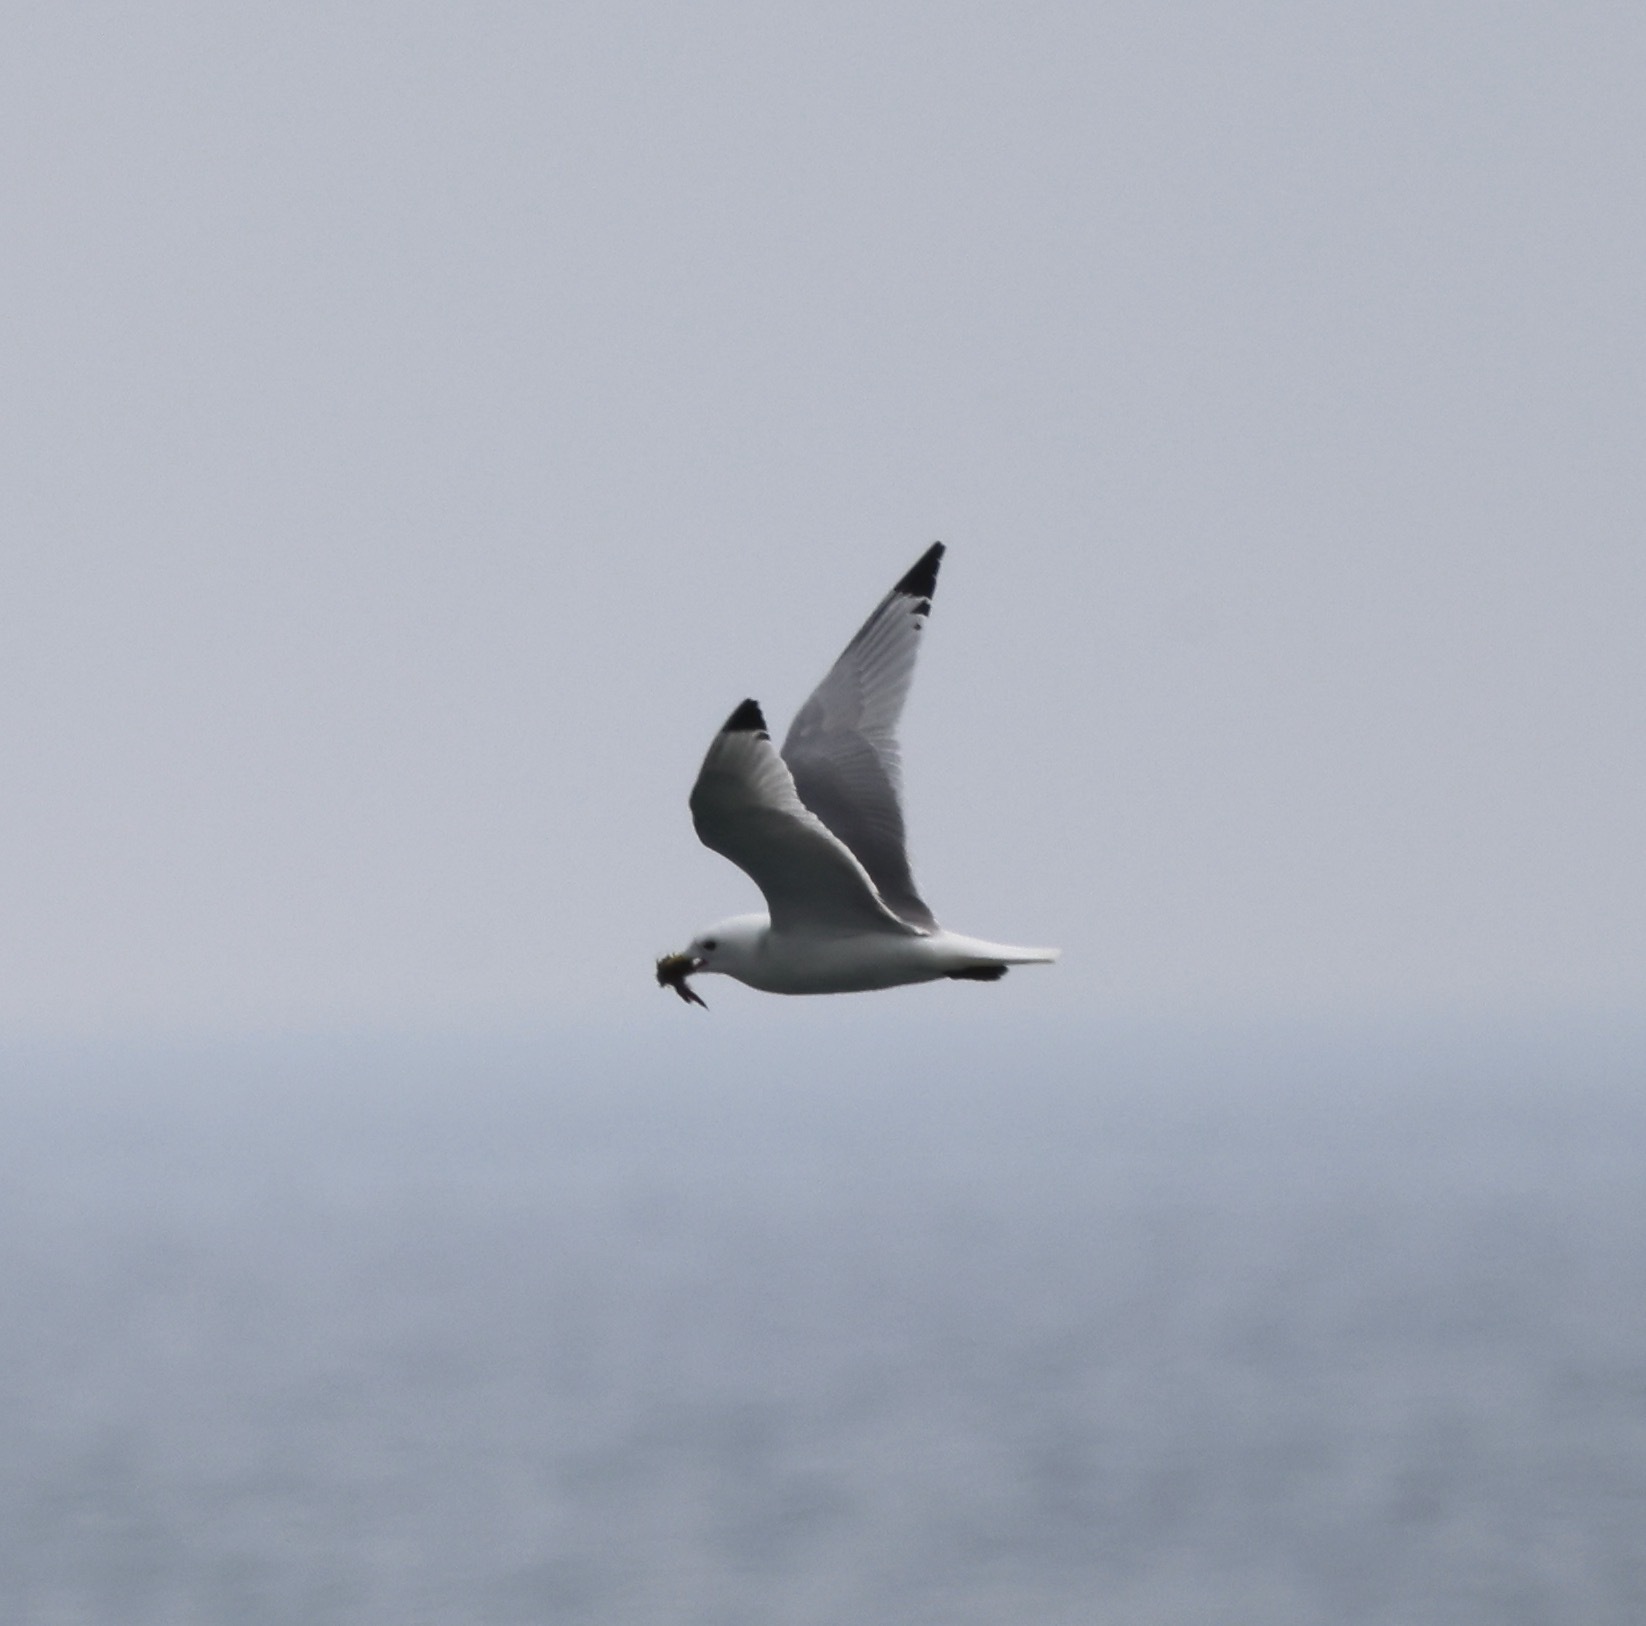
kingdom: Animalia
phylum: Chordata
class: Aves
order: Charadriiformes
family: Laridae
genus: Rissa
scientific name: Rissa tridactyla
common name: Black-legged kittiwake
